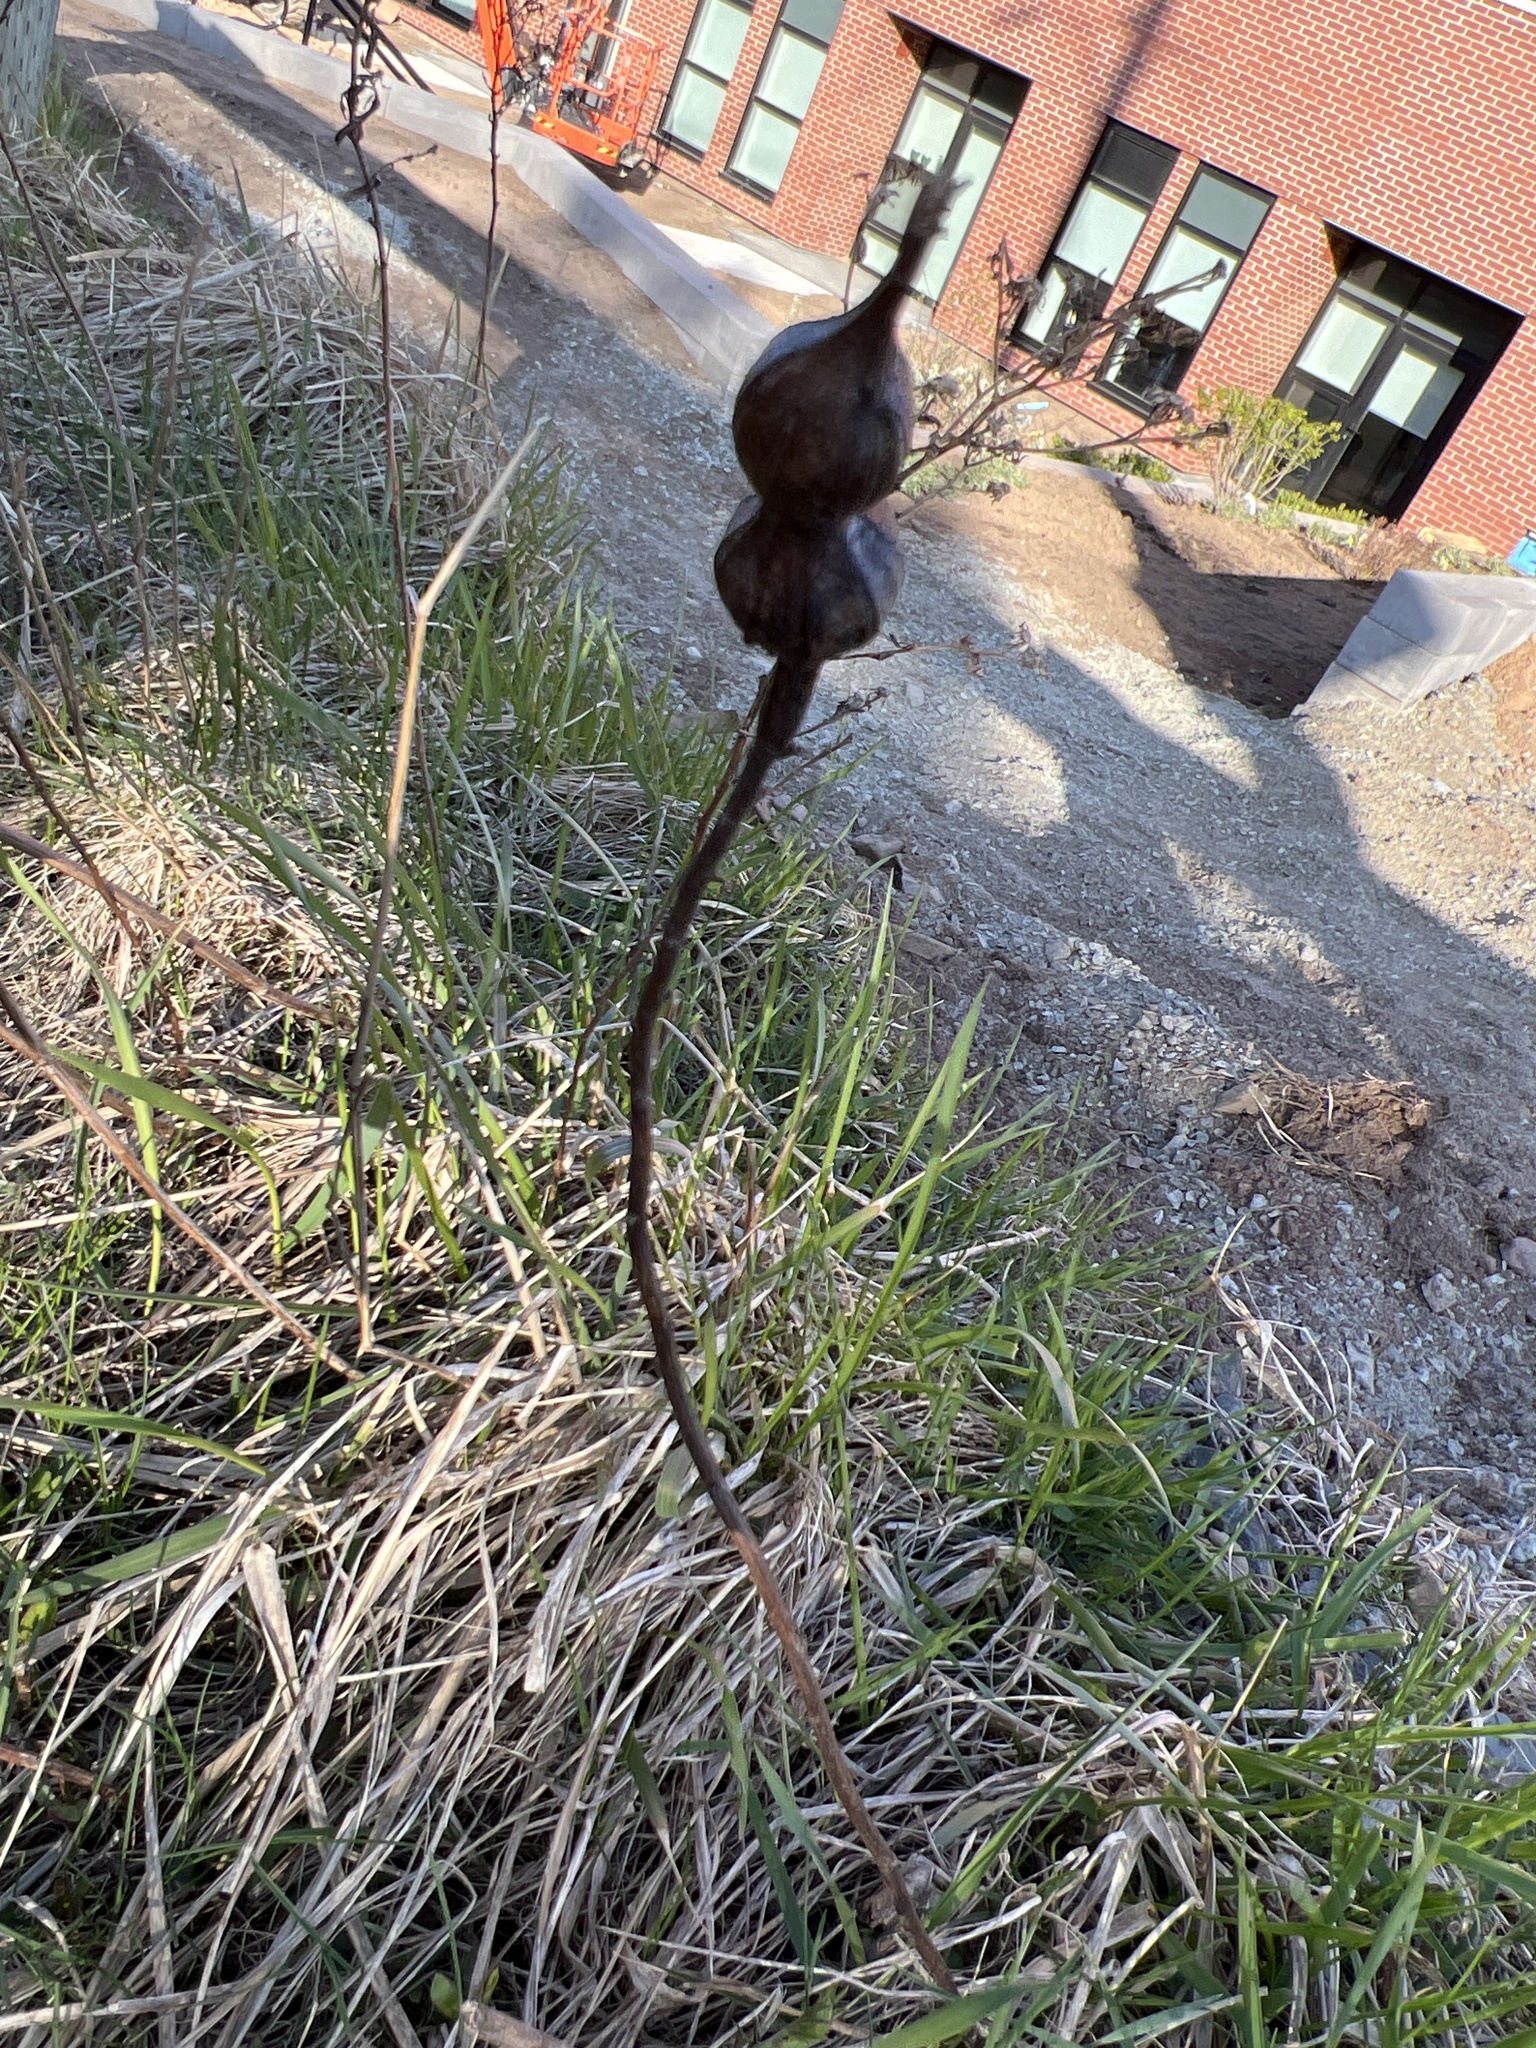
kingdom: Animalia
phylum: Arthropoda
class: Insecta
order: Diptera
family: Tephritidae
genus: Eurosta
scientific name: Eurosta solidaginis
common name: Goldenrod gall fly
